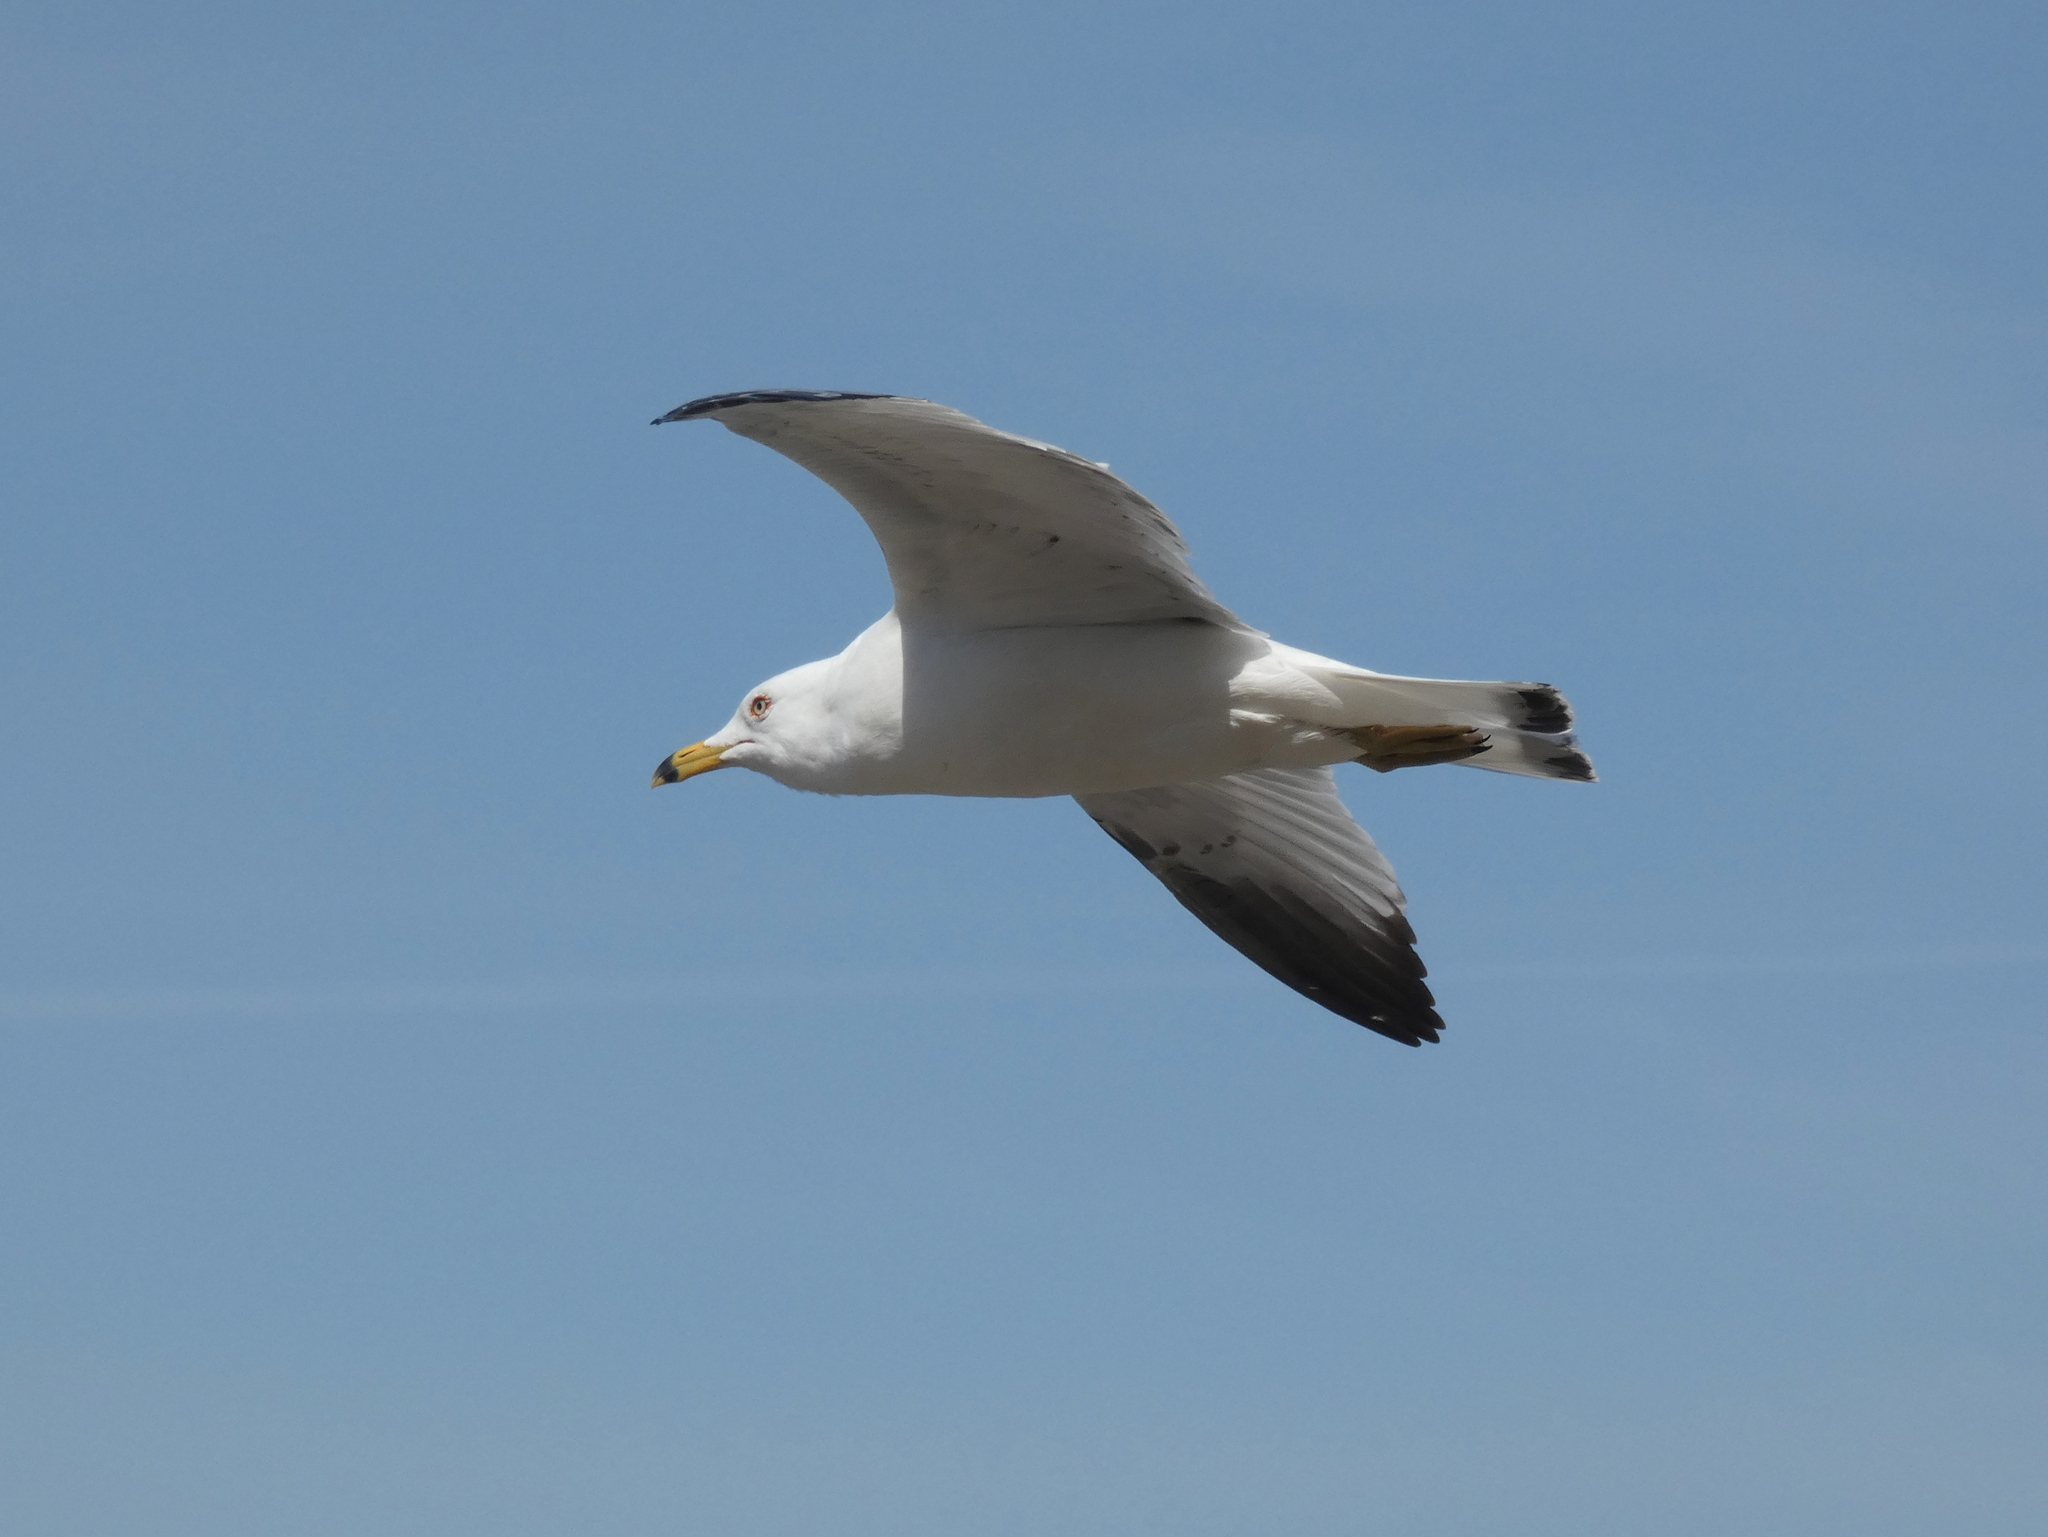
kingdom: Animalia
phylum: Chordata
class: Aves
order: Charadriiformes
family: Laridae
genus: Larus
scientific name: Larus delawarensis
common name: Ring-billed gull
